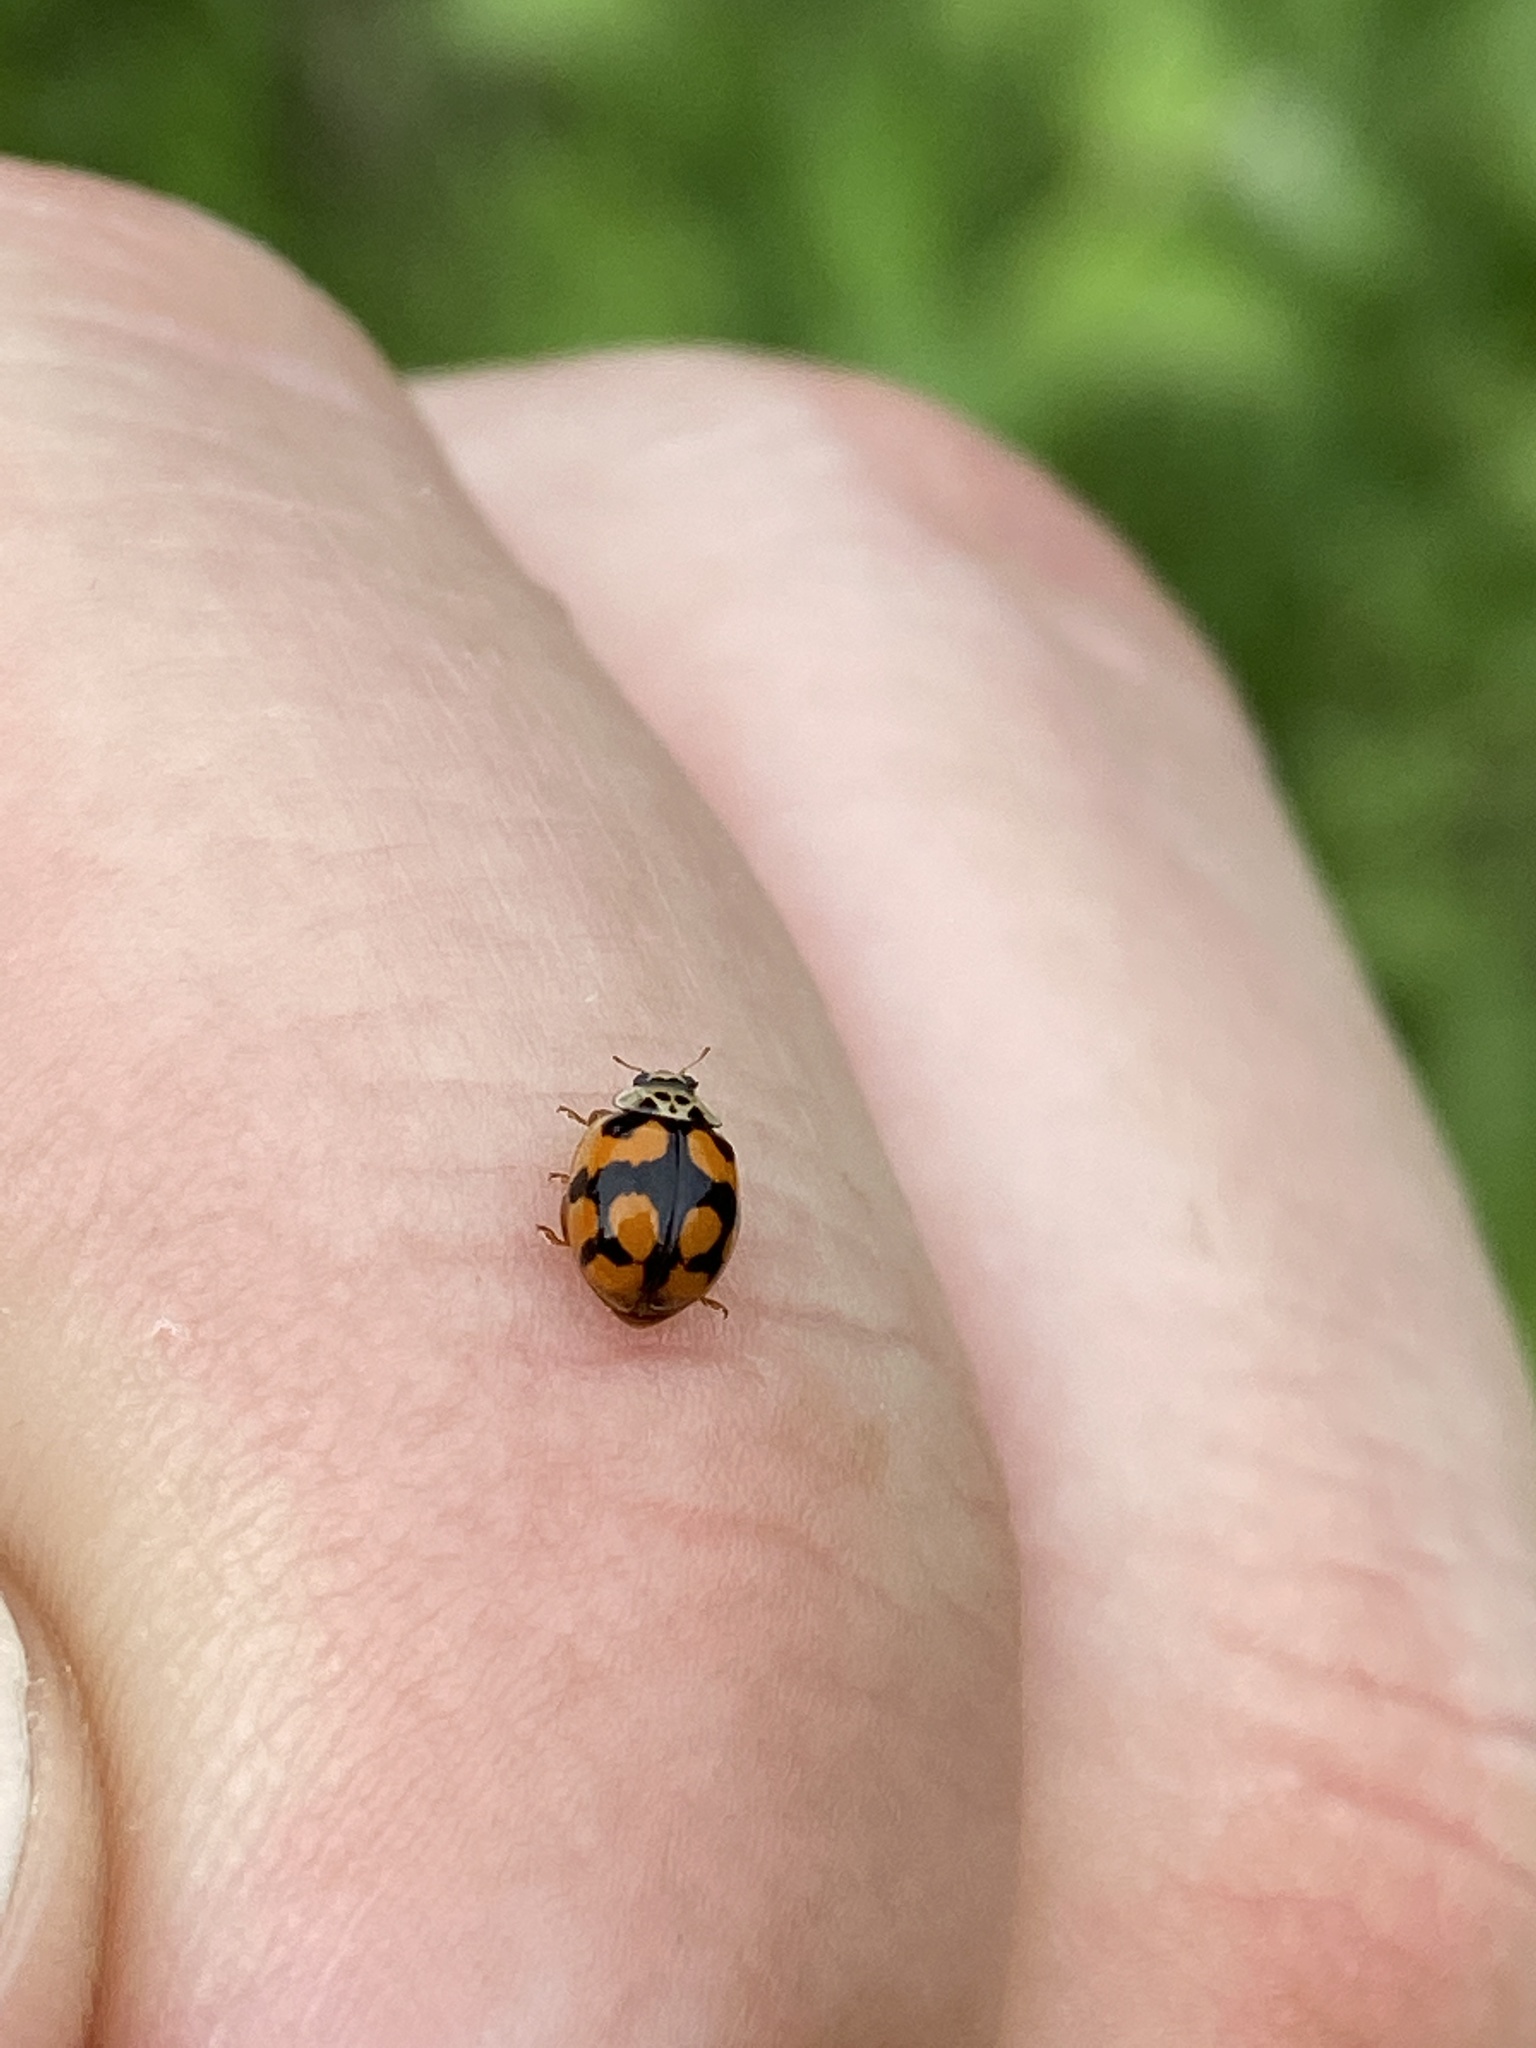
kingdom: Animalia
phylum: Arthropoda
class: Insecta
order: Coleoptera
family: Coccinellidae
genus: Adalia
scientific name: Adalia decempunctata
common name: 10-spot ladybird
